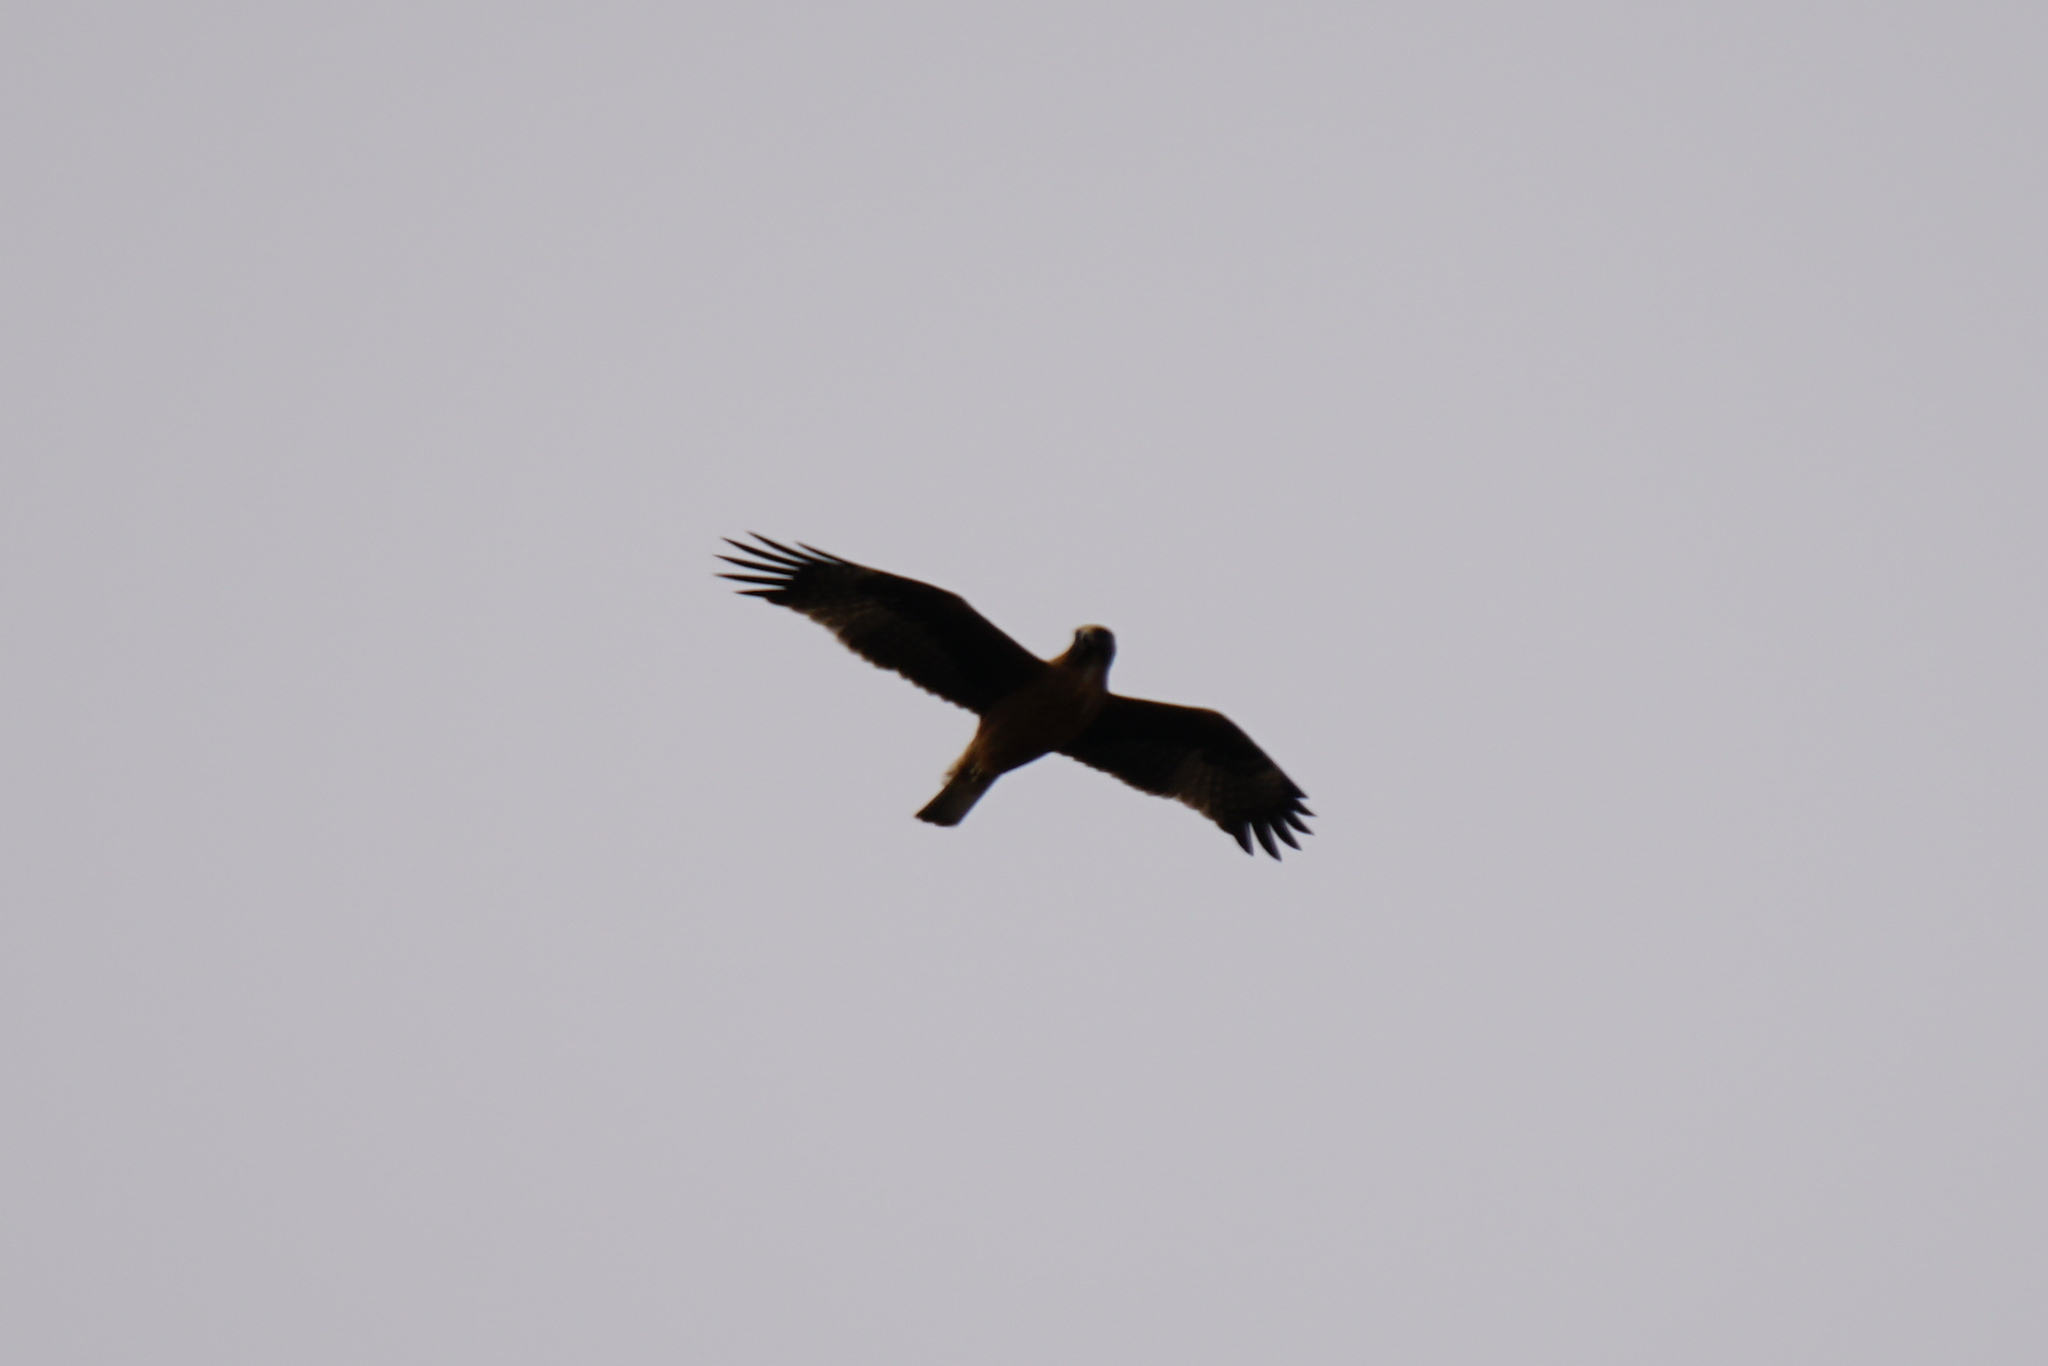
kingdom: Animalia
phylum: Chordata
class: Aves
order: Accipitriformes
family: Accipitridae
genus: Hieraaetus
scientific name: Hieraaetus morphnoides
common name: Little eagle
